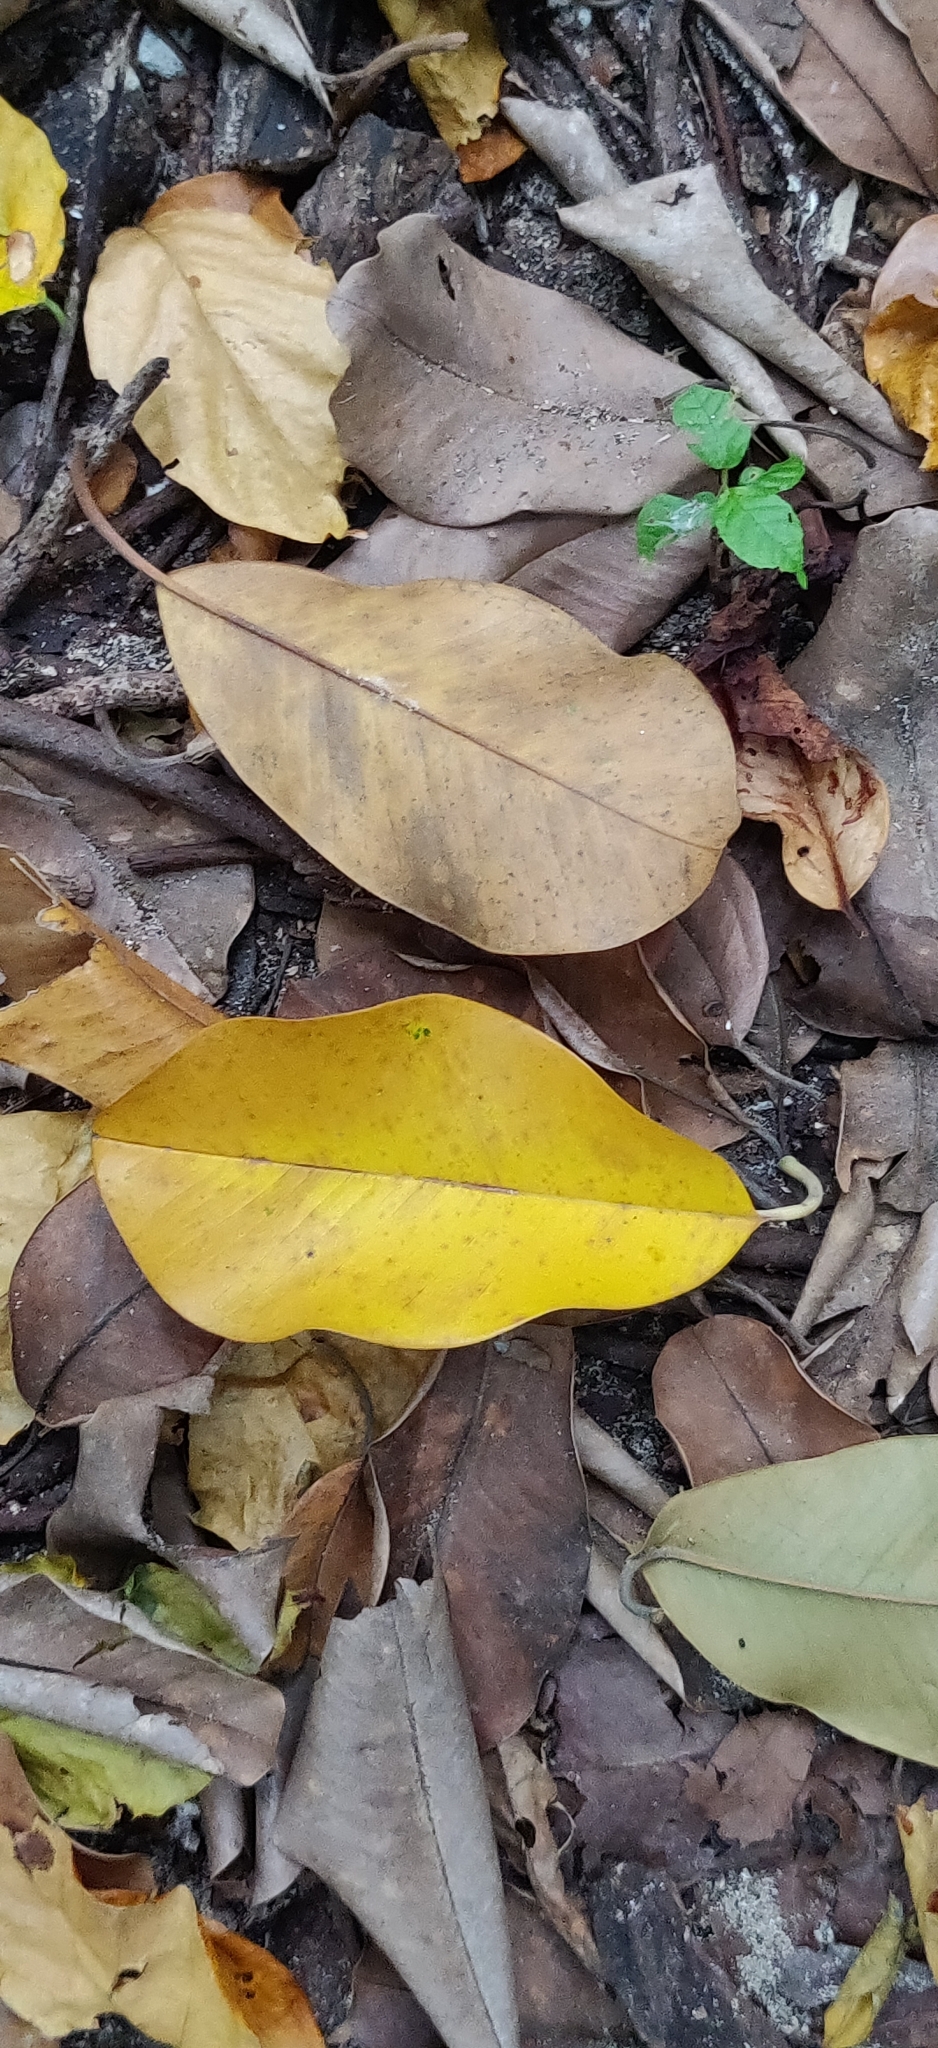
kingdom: Plantae
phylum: Tracheophyta
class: Magnoliopsida
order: Ericales
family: Sapotaceae
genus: Manilkara
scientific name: Manilkara littoralis
